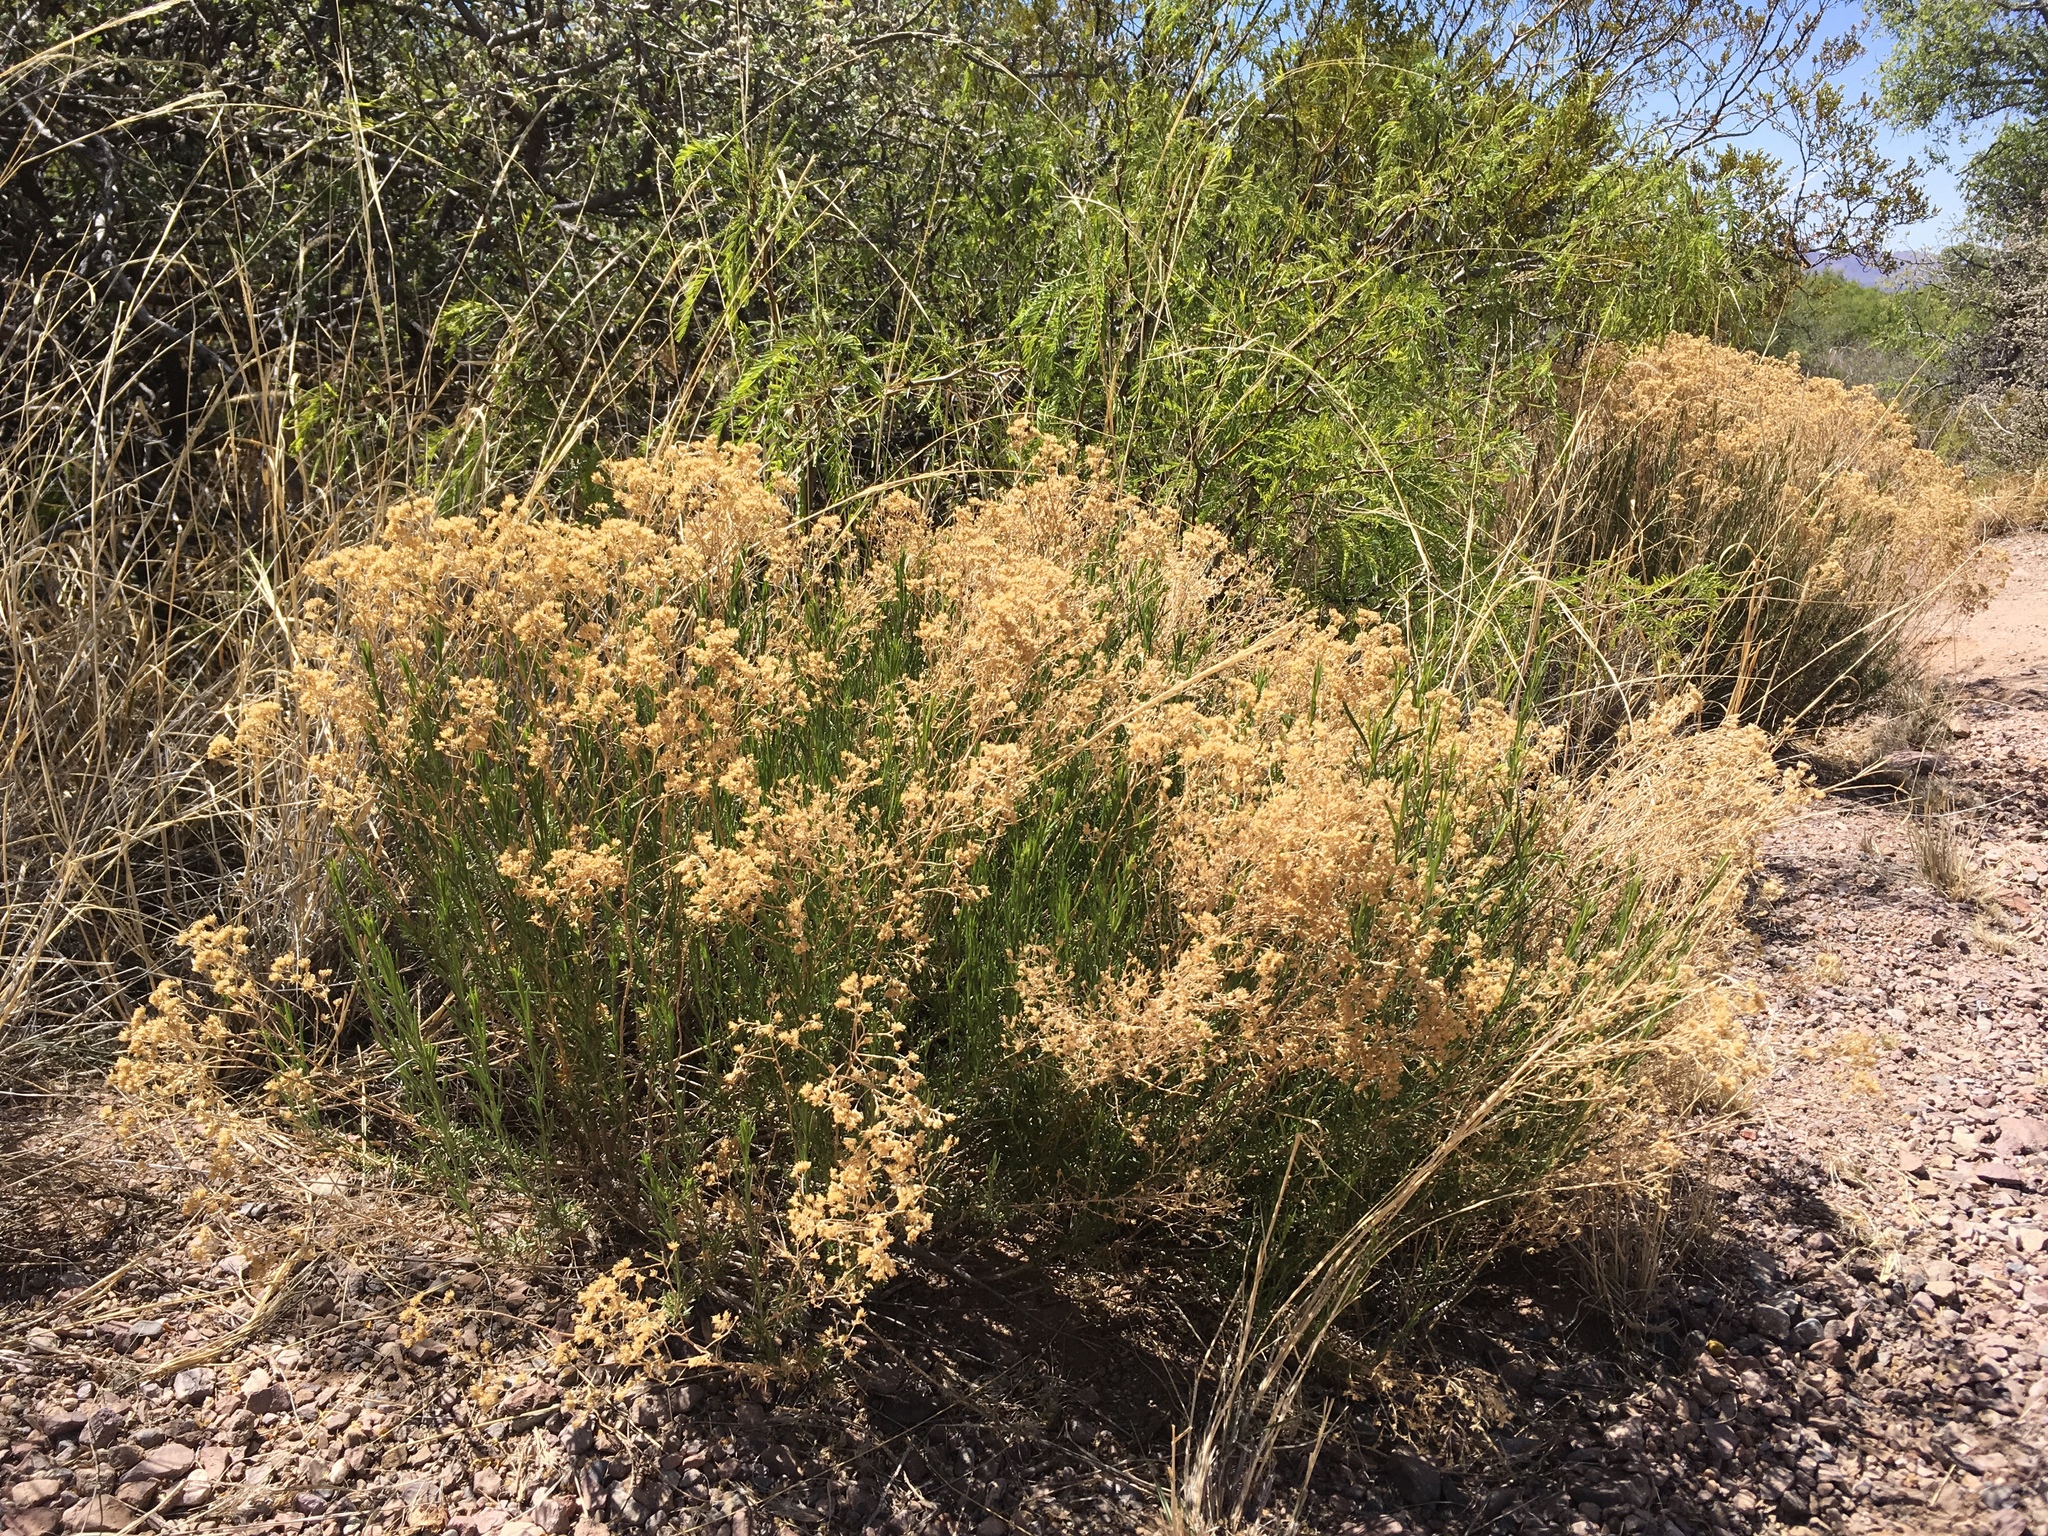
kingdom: Plantae
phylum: Tracheophyta
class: Magnoliopsida
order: Asterales
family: Asteraceae
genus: Gutierrezia
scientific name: Gutierrezia sarothrae
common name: Broom snakeweed
